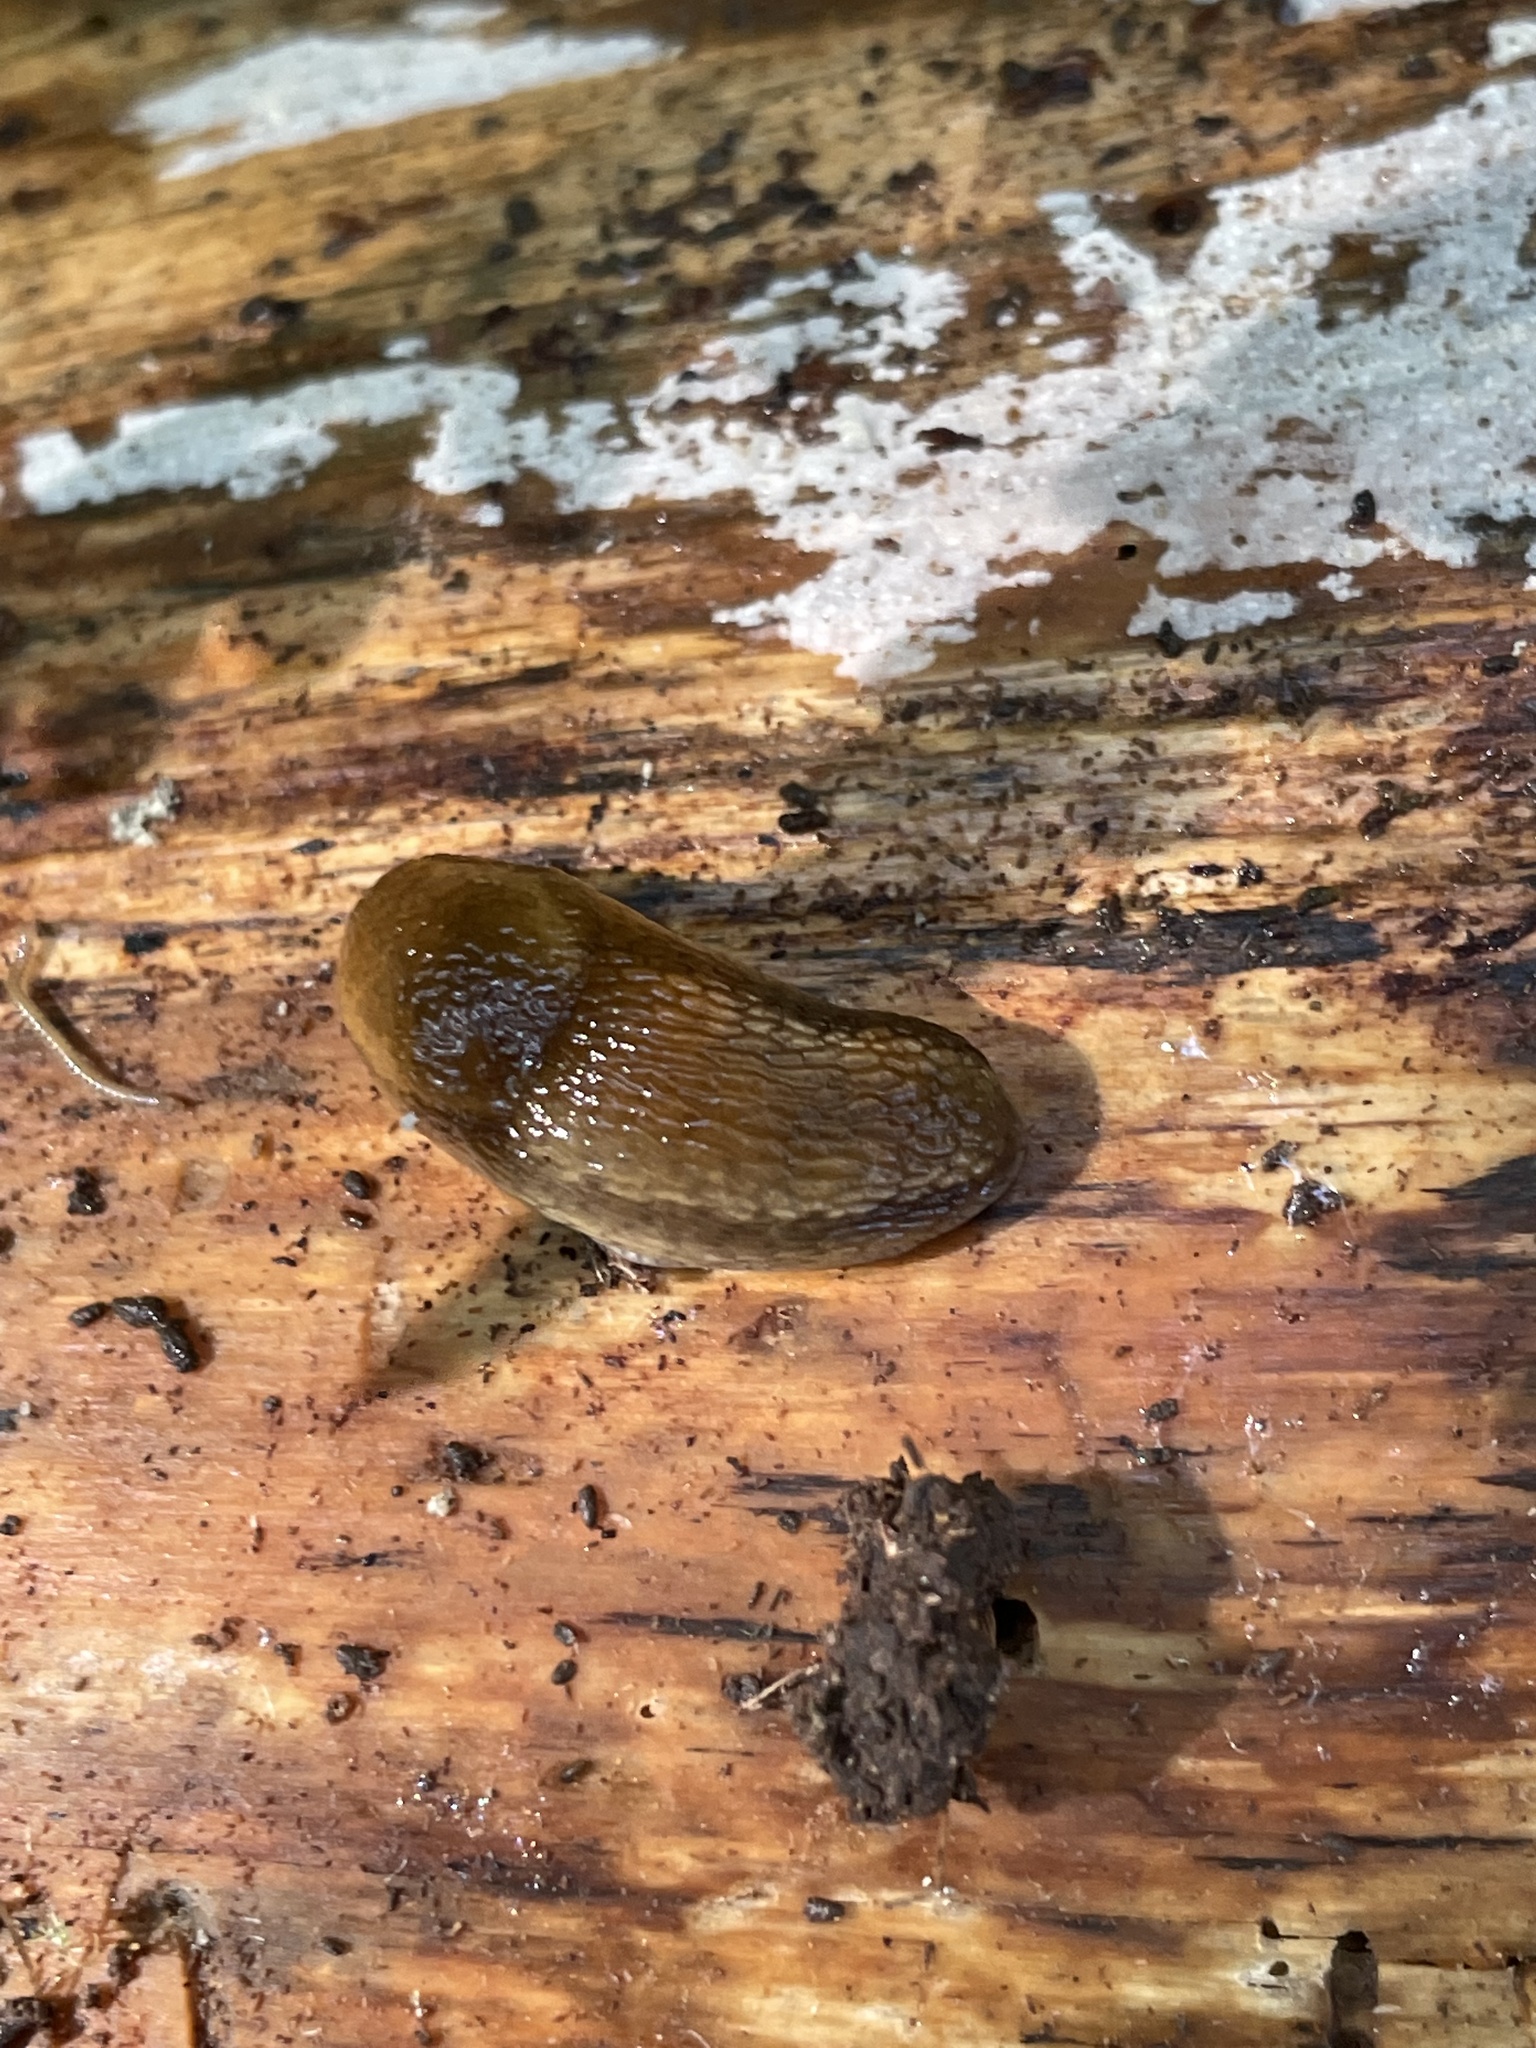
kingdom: Animalia
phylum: Mollusca
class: Gastropoda
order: Stylommatophora
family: Arionidae
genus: Arion
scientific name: Arion subfuscus
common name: Dusky arion
